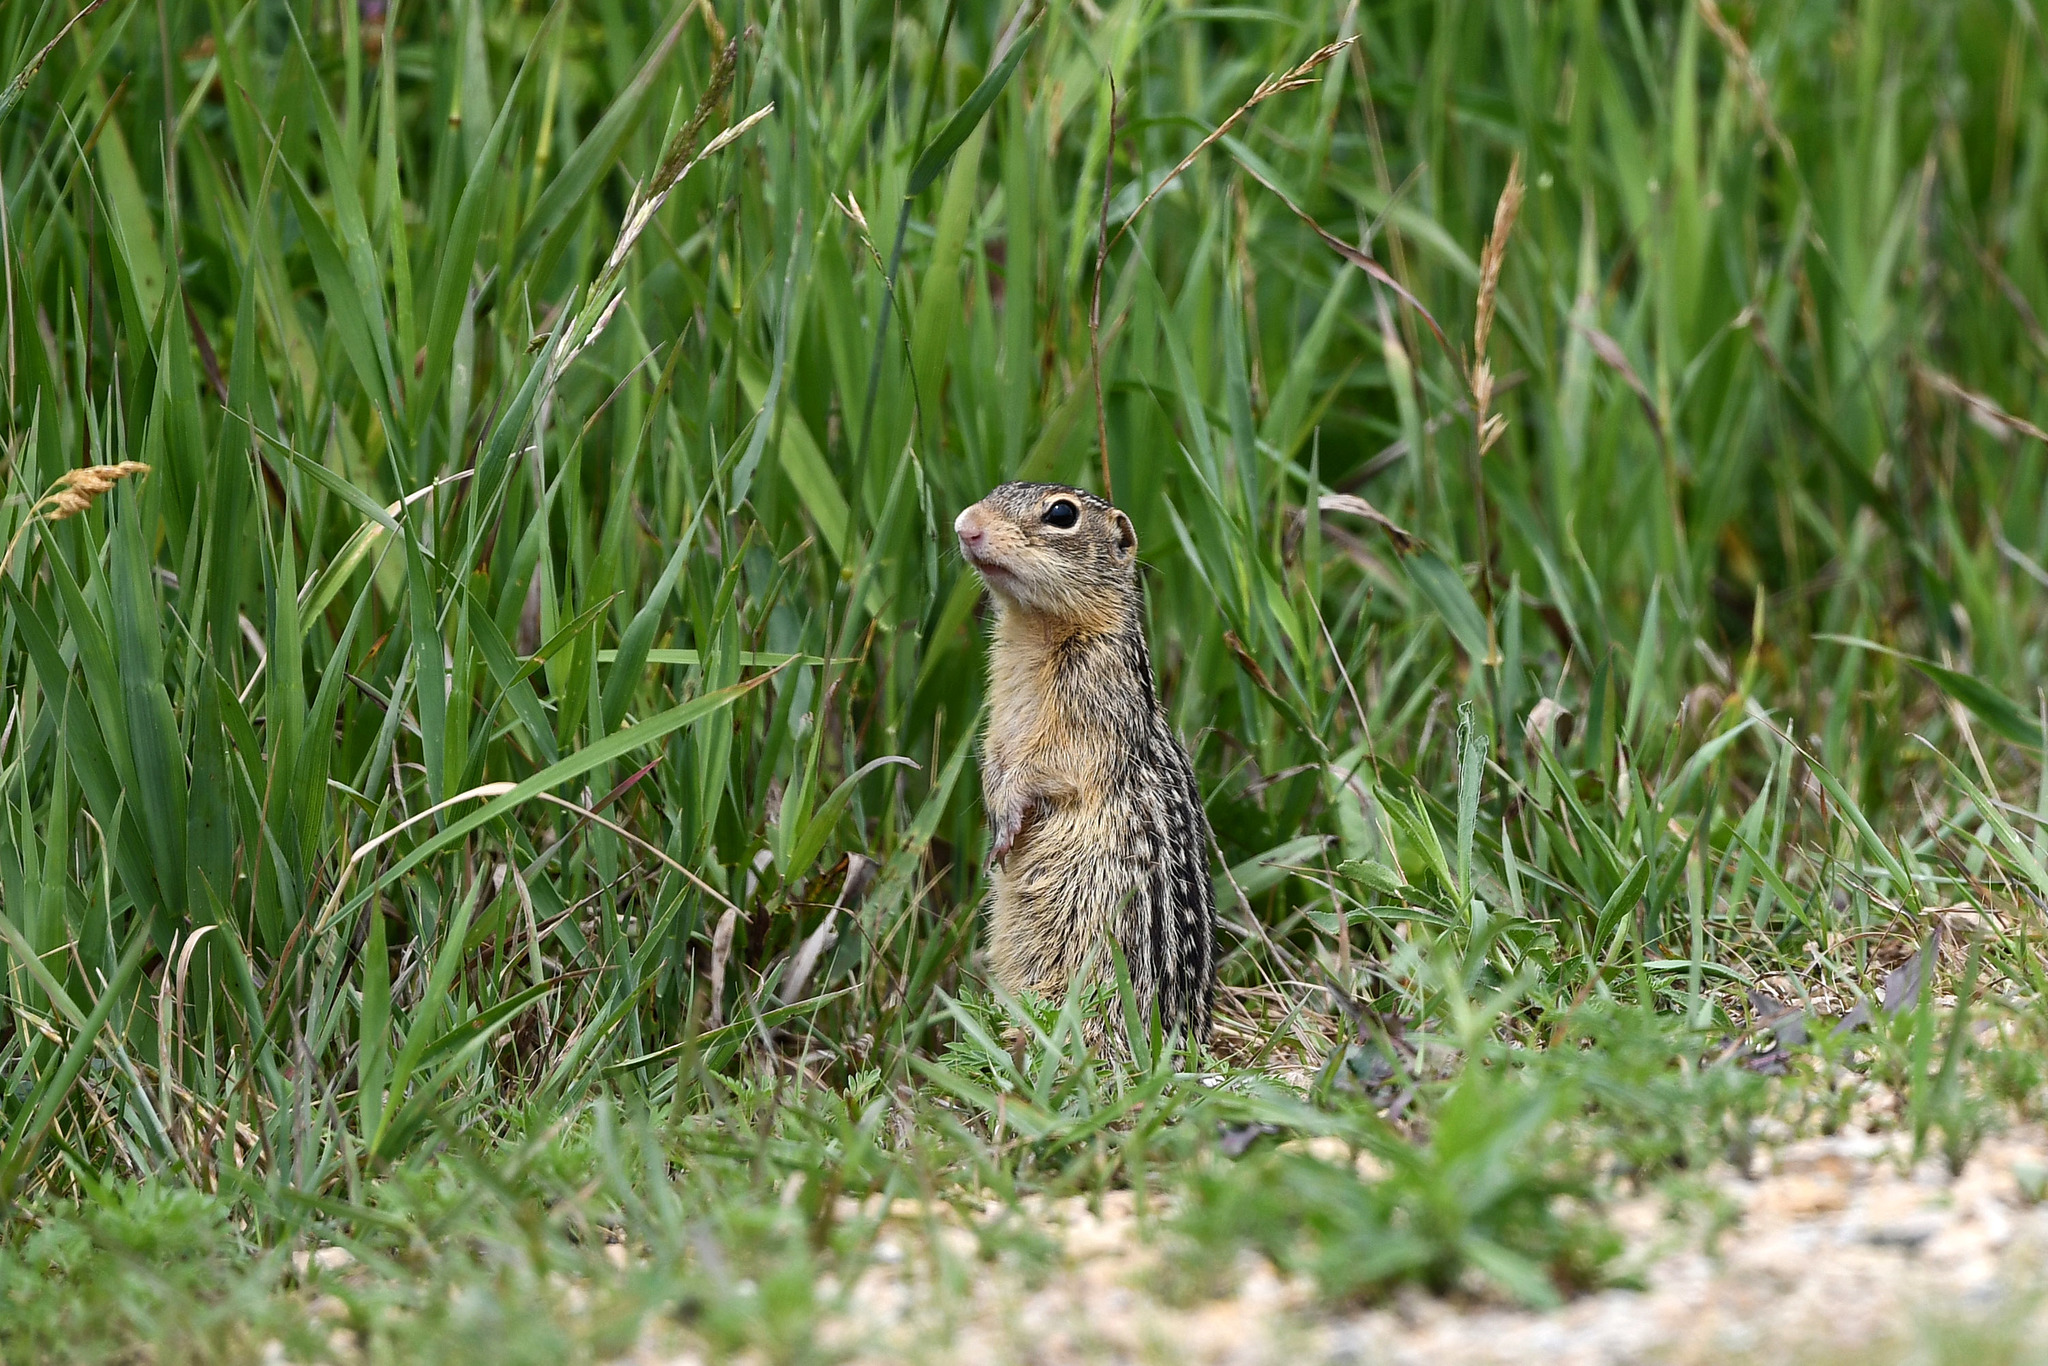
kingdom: Animalia
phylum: Chordata
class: Mammalia
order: Rodentia
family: Sciuridae
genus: Ictidomys
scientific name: Ictidomys tridecemlineatus
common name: Thirteen-lined ground squirrel
